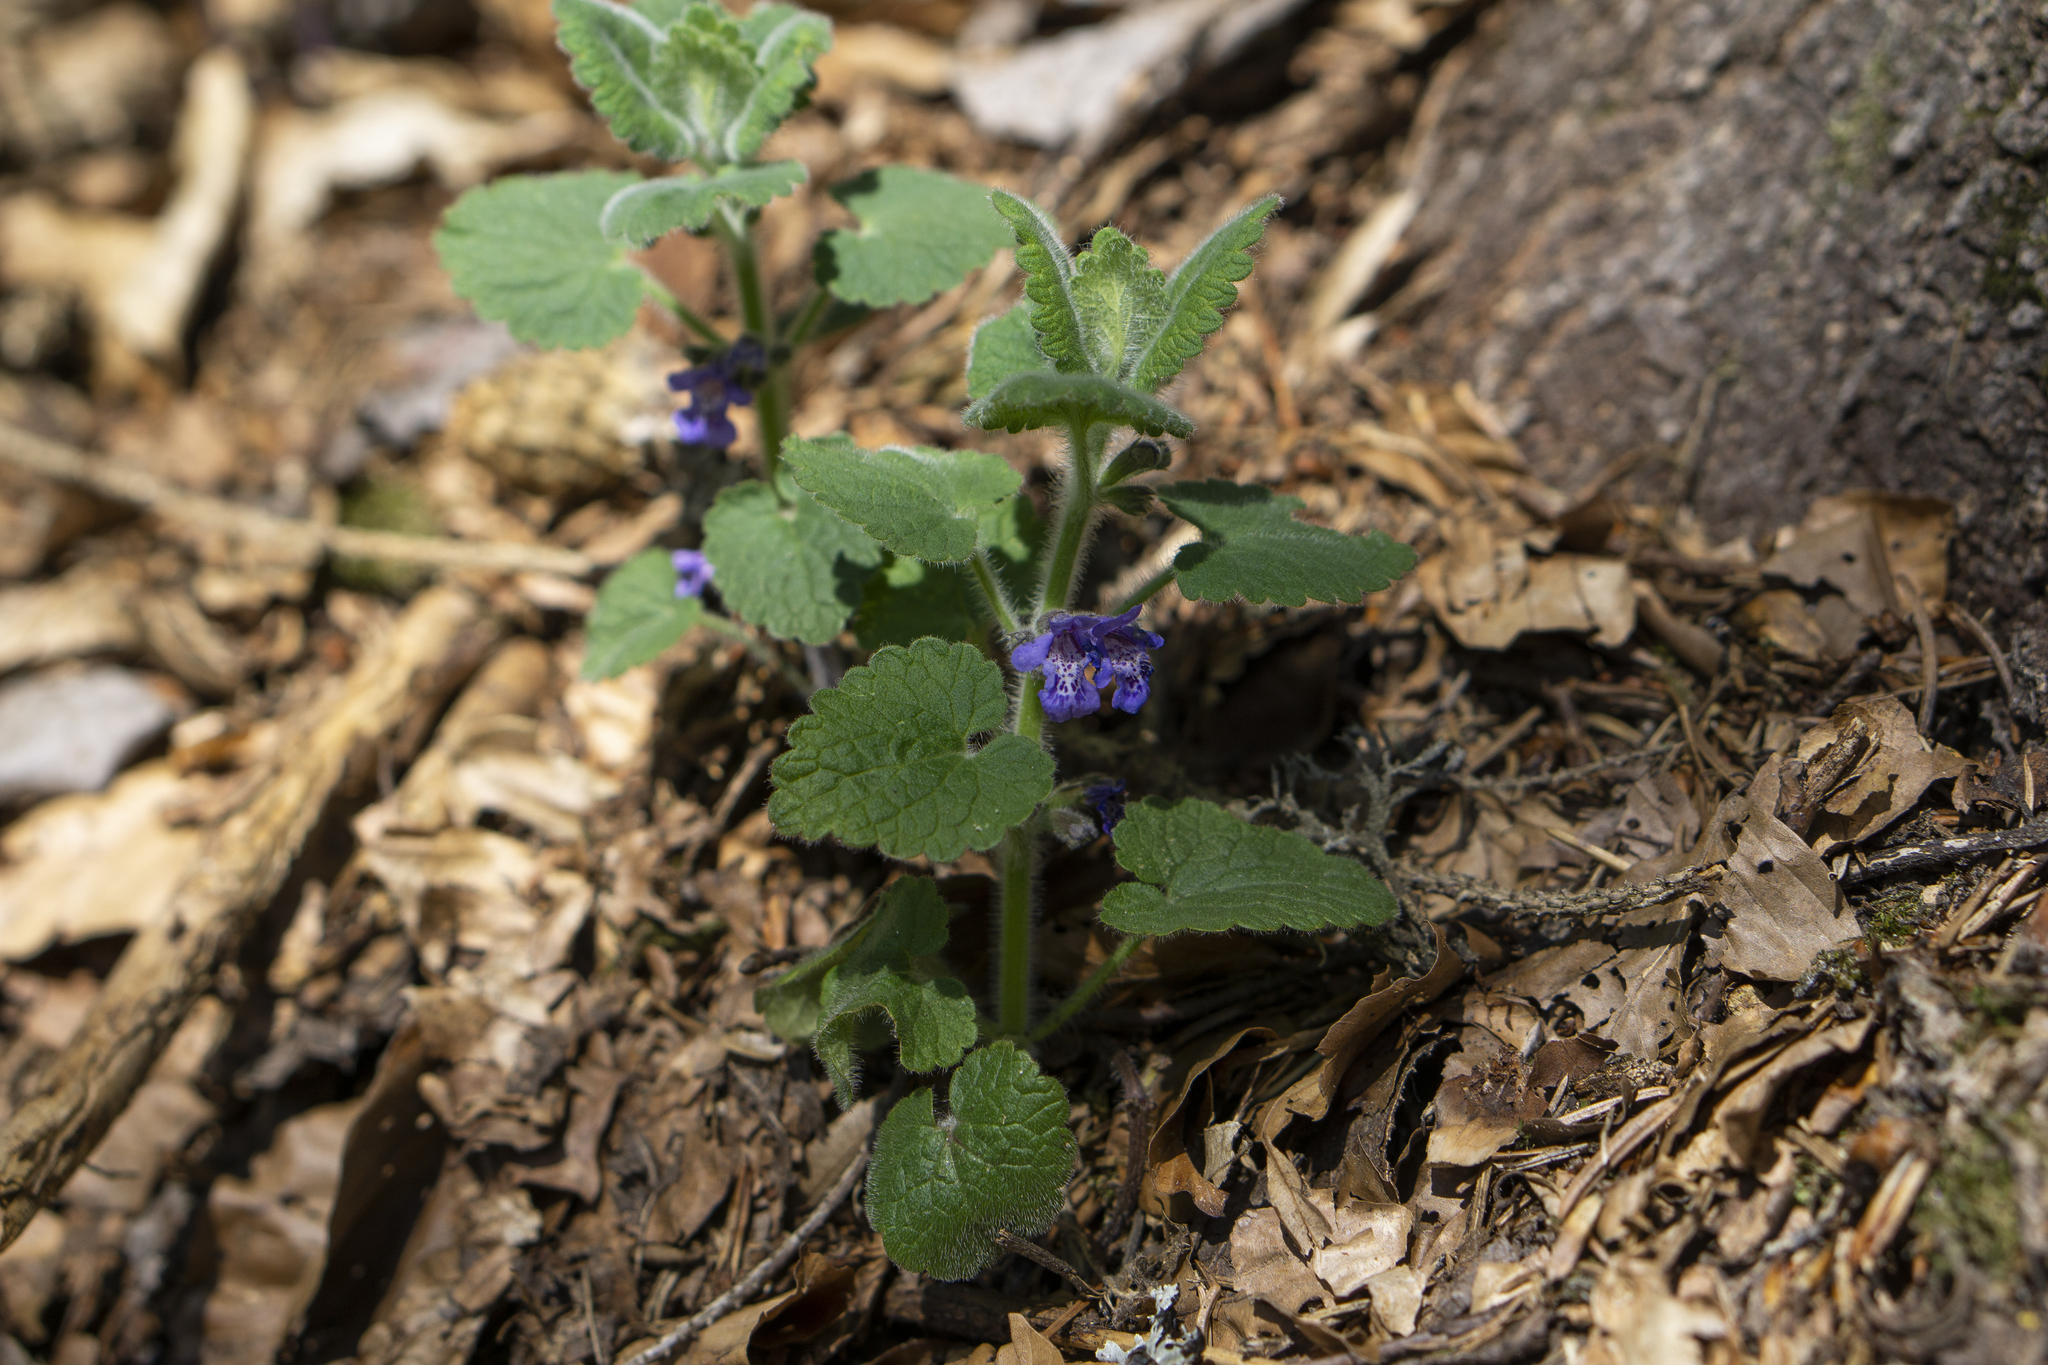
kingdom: Plantae
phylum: Tracheophyta
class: Magnoliopsida
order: Lamiales
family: Lamiaceae
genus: Glechoma
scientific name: Glechoma hirsuta
